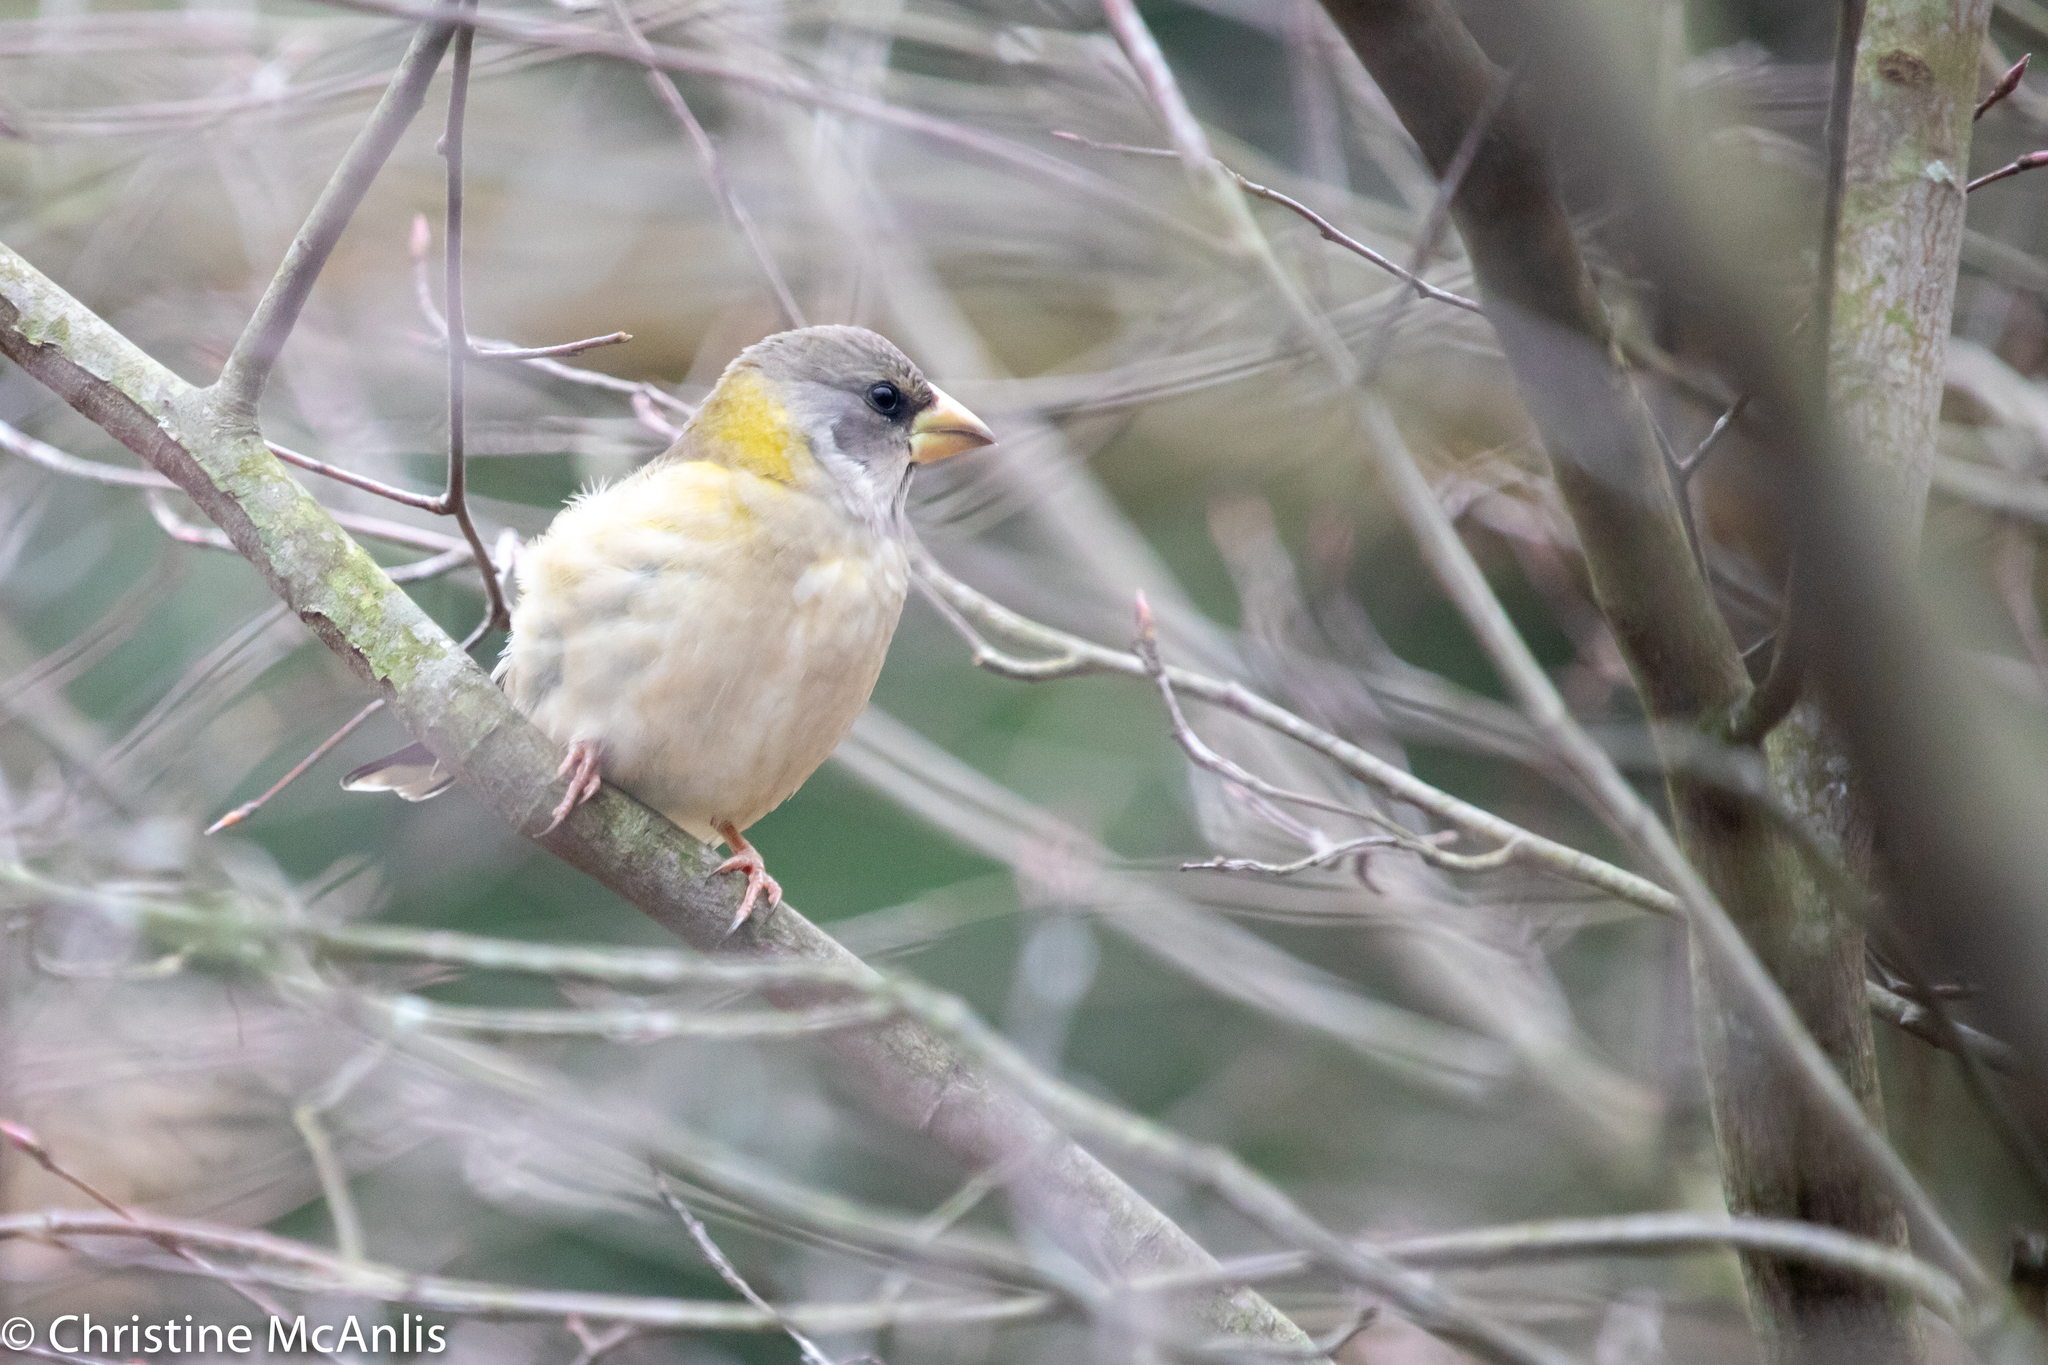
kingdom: Animalia
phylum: Chordata
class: Aves
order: Passeriformes
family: Fringillidae
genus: Hesperiphona
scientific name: Hesperiphona vespertina
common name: Evening grosbeak
